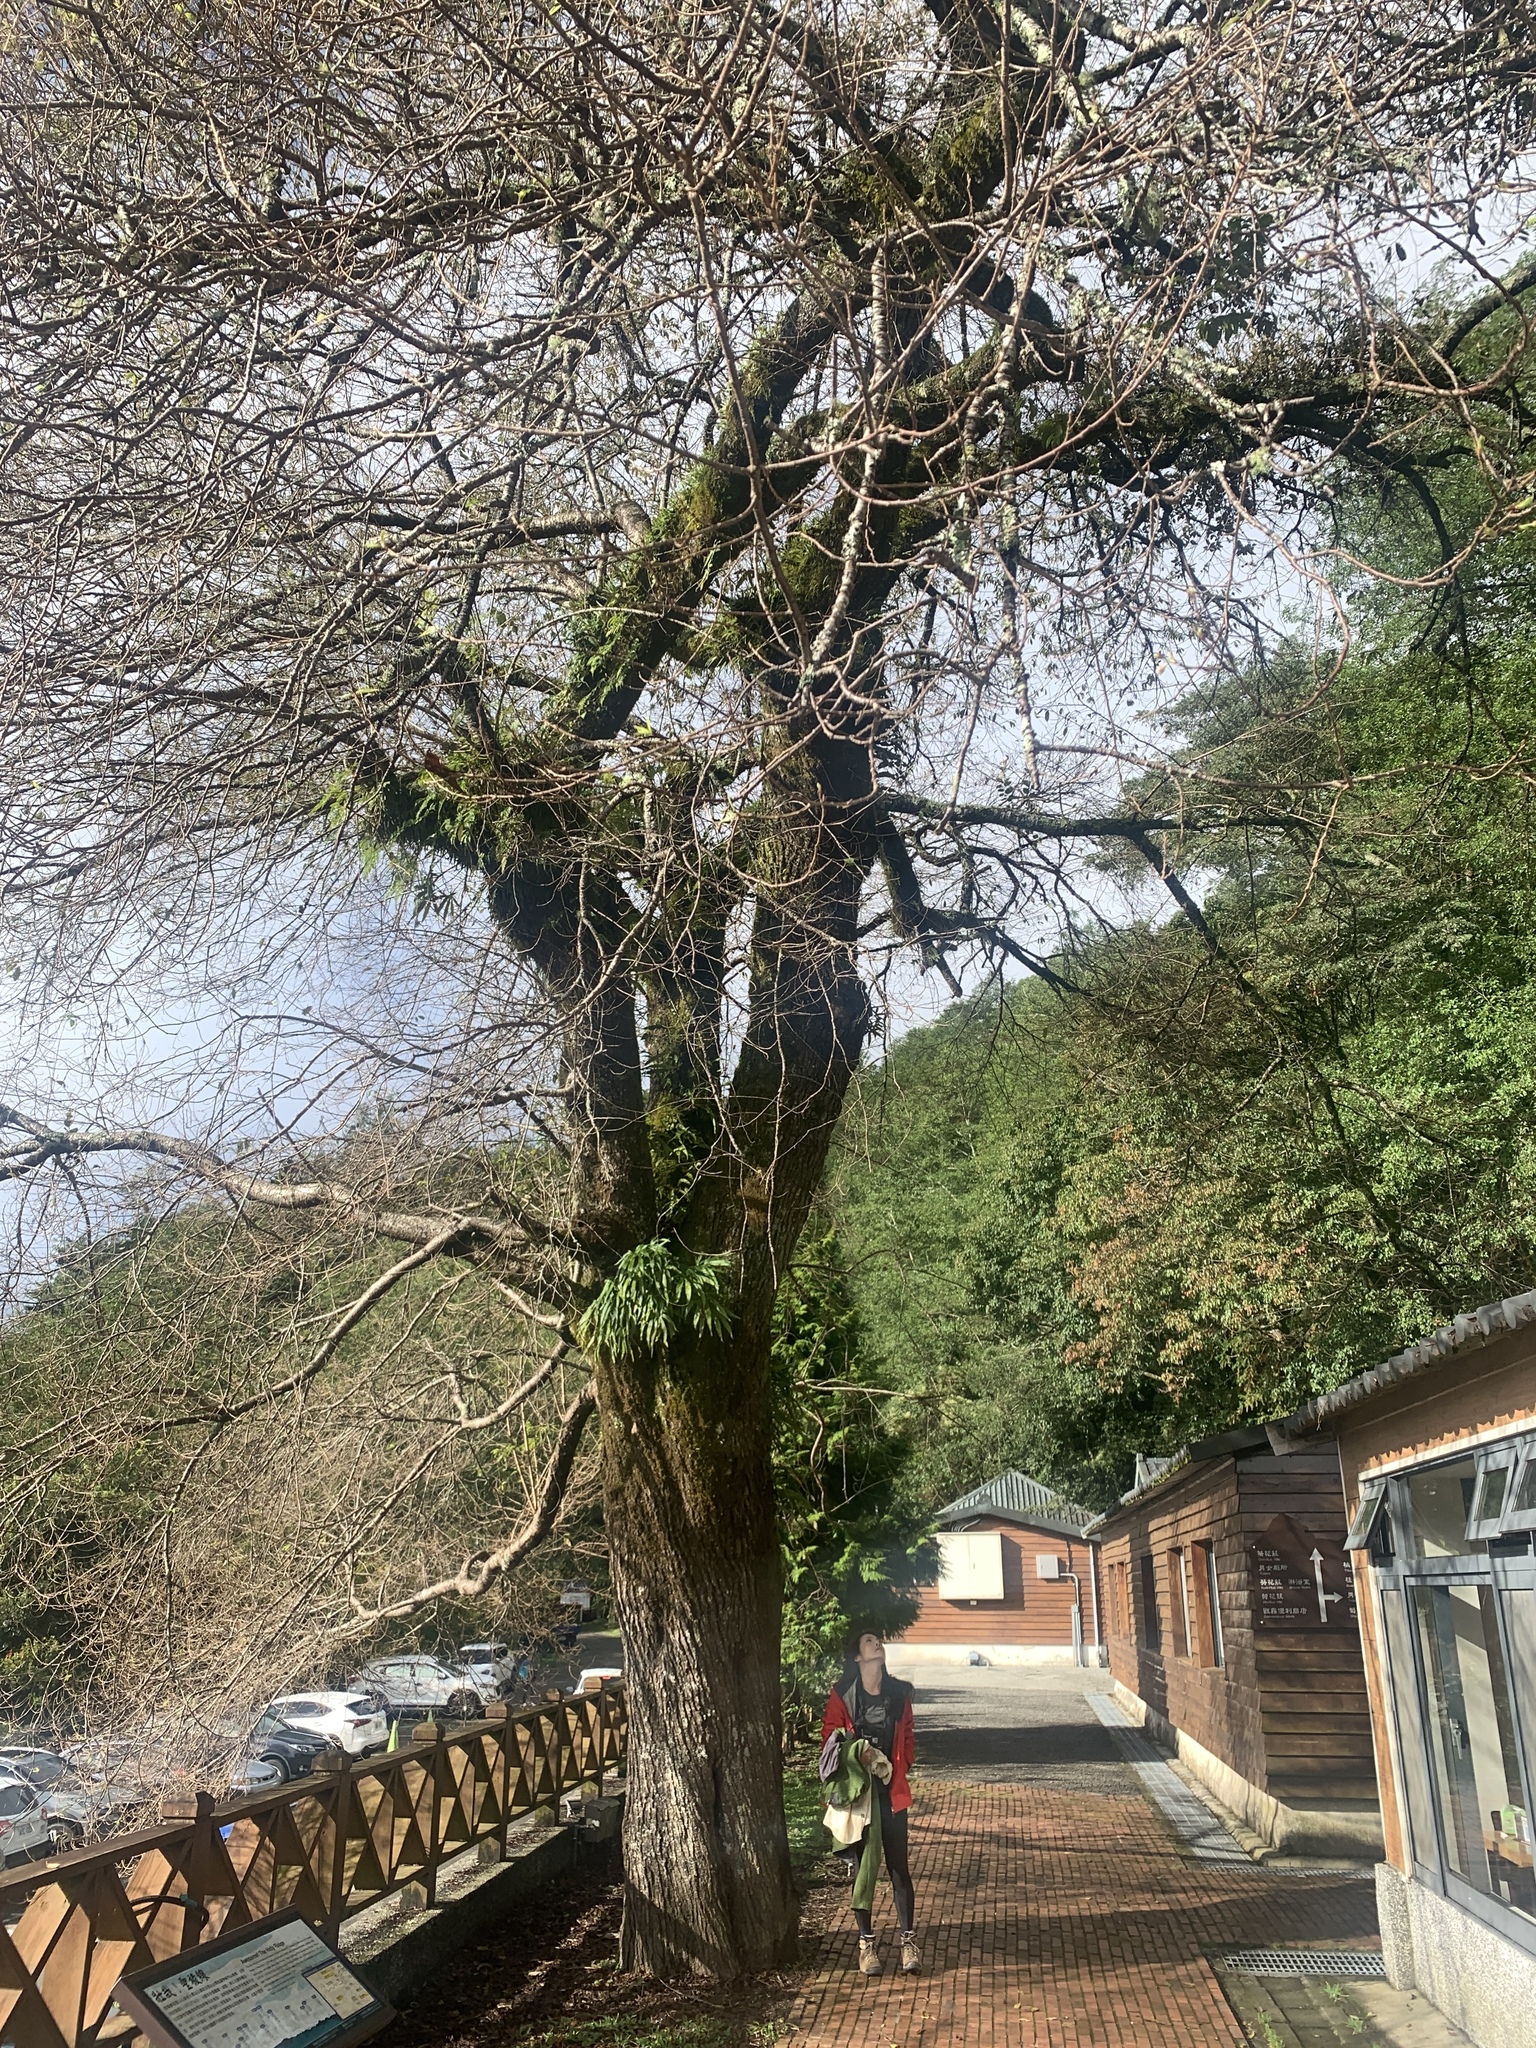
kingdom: Plantae
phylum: Tracheophyta
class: Magnoliopsida
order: Rosales
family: Rosaceae
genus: Prunus
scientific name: Prunus itosakura
